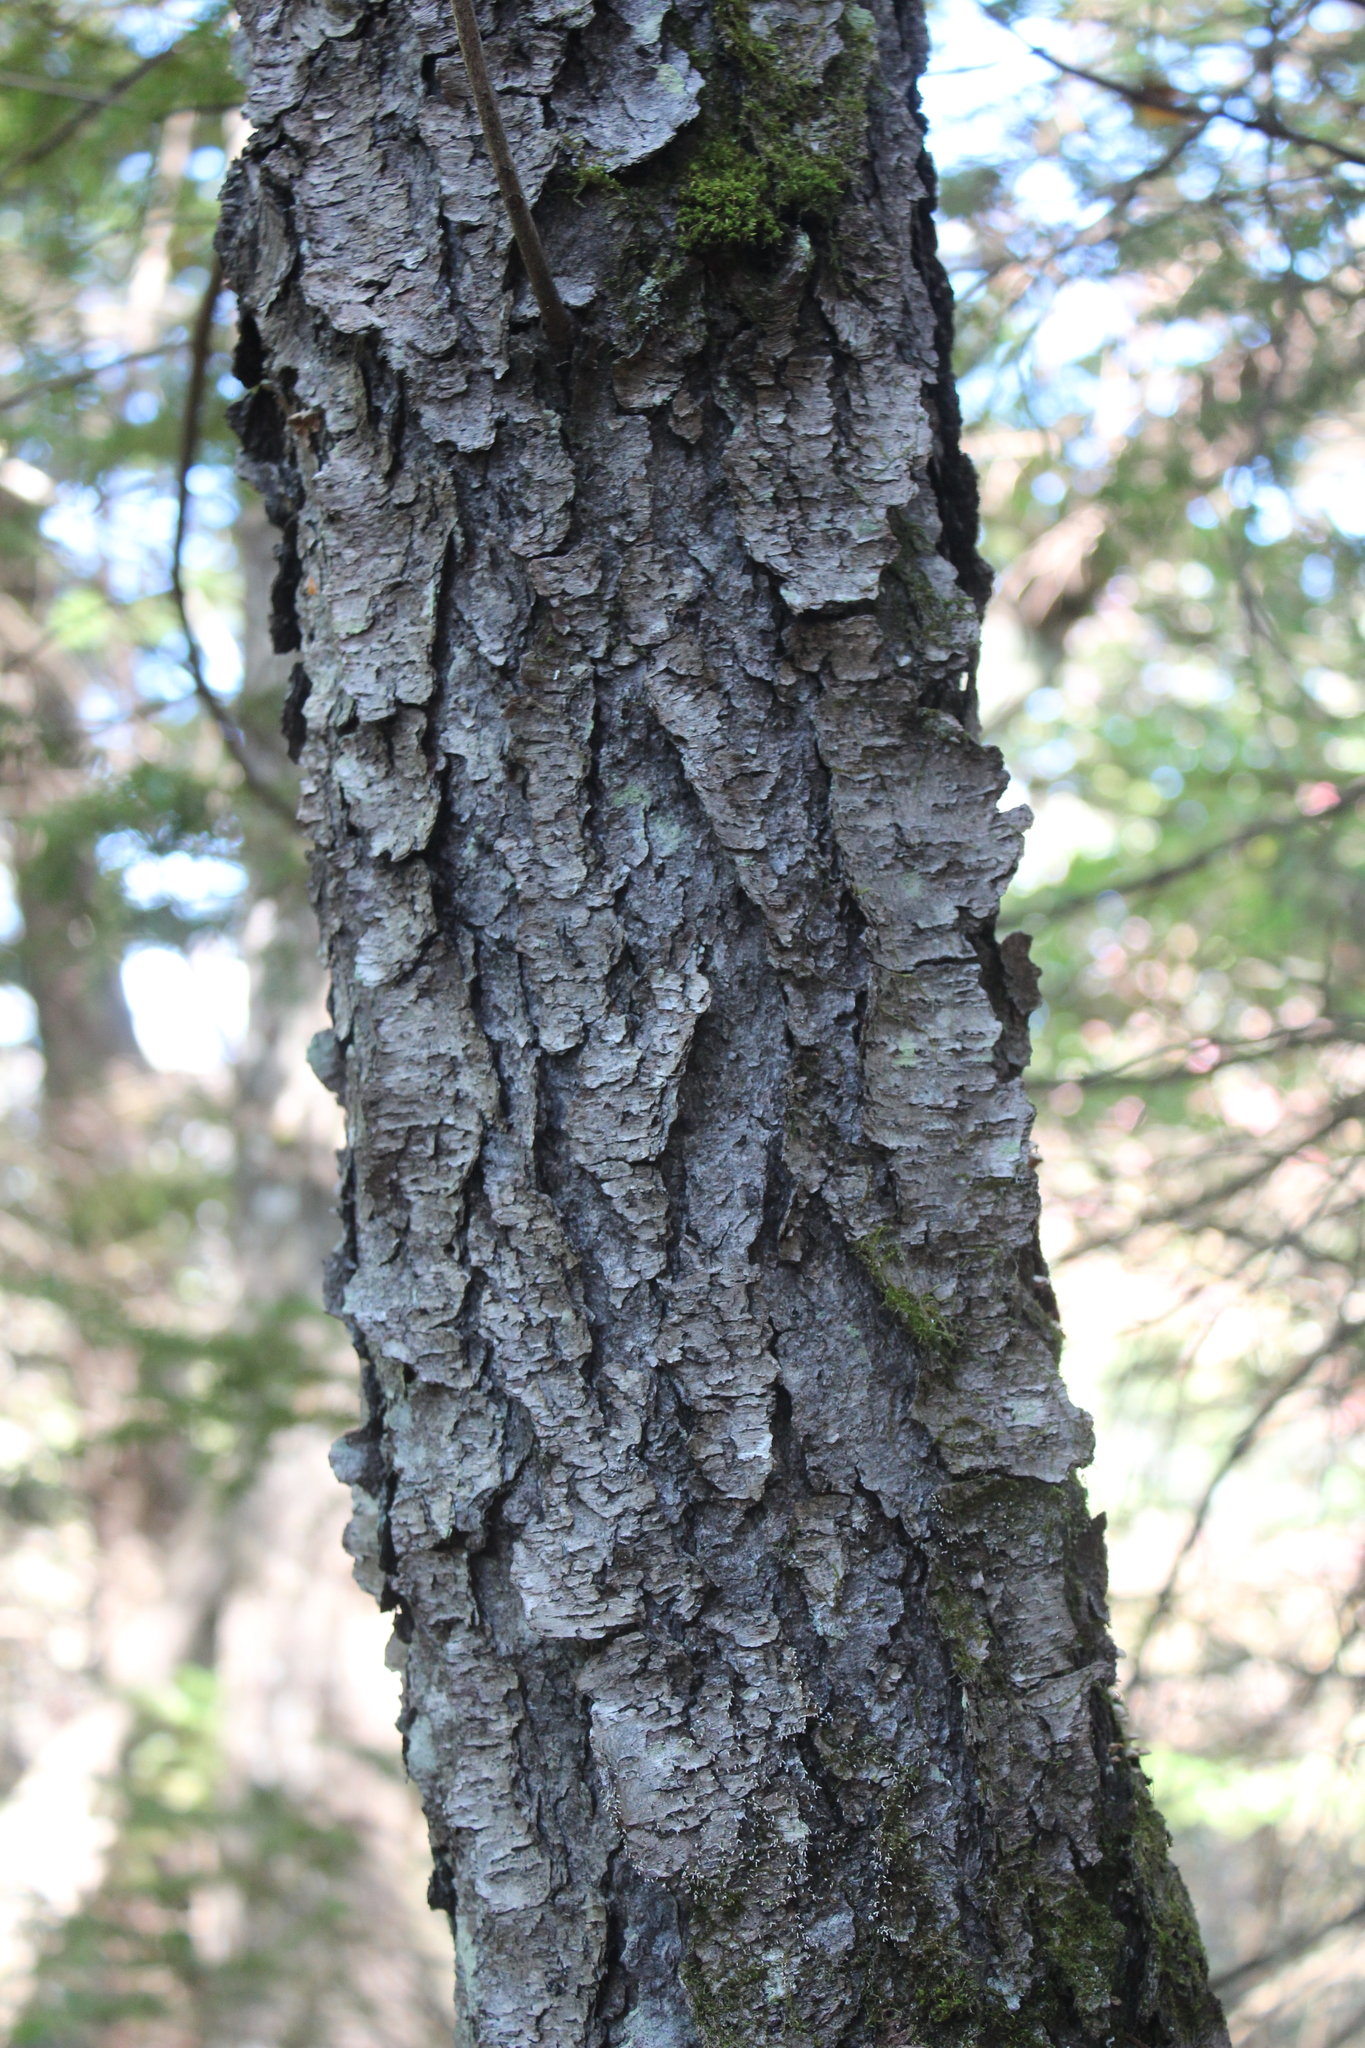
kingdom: Plantae
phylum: Tracheophyta
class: Magnoliopsida
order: Rosales
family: Rosaceae
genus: Prunus
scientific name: Prunus serotina
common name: Black cherry
